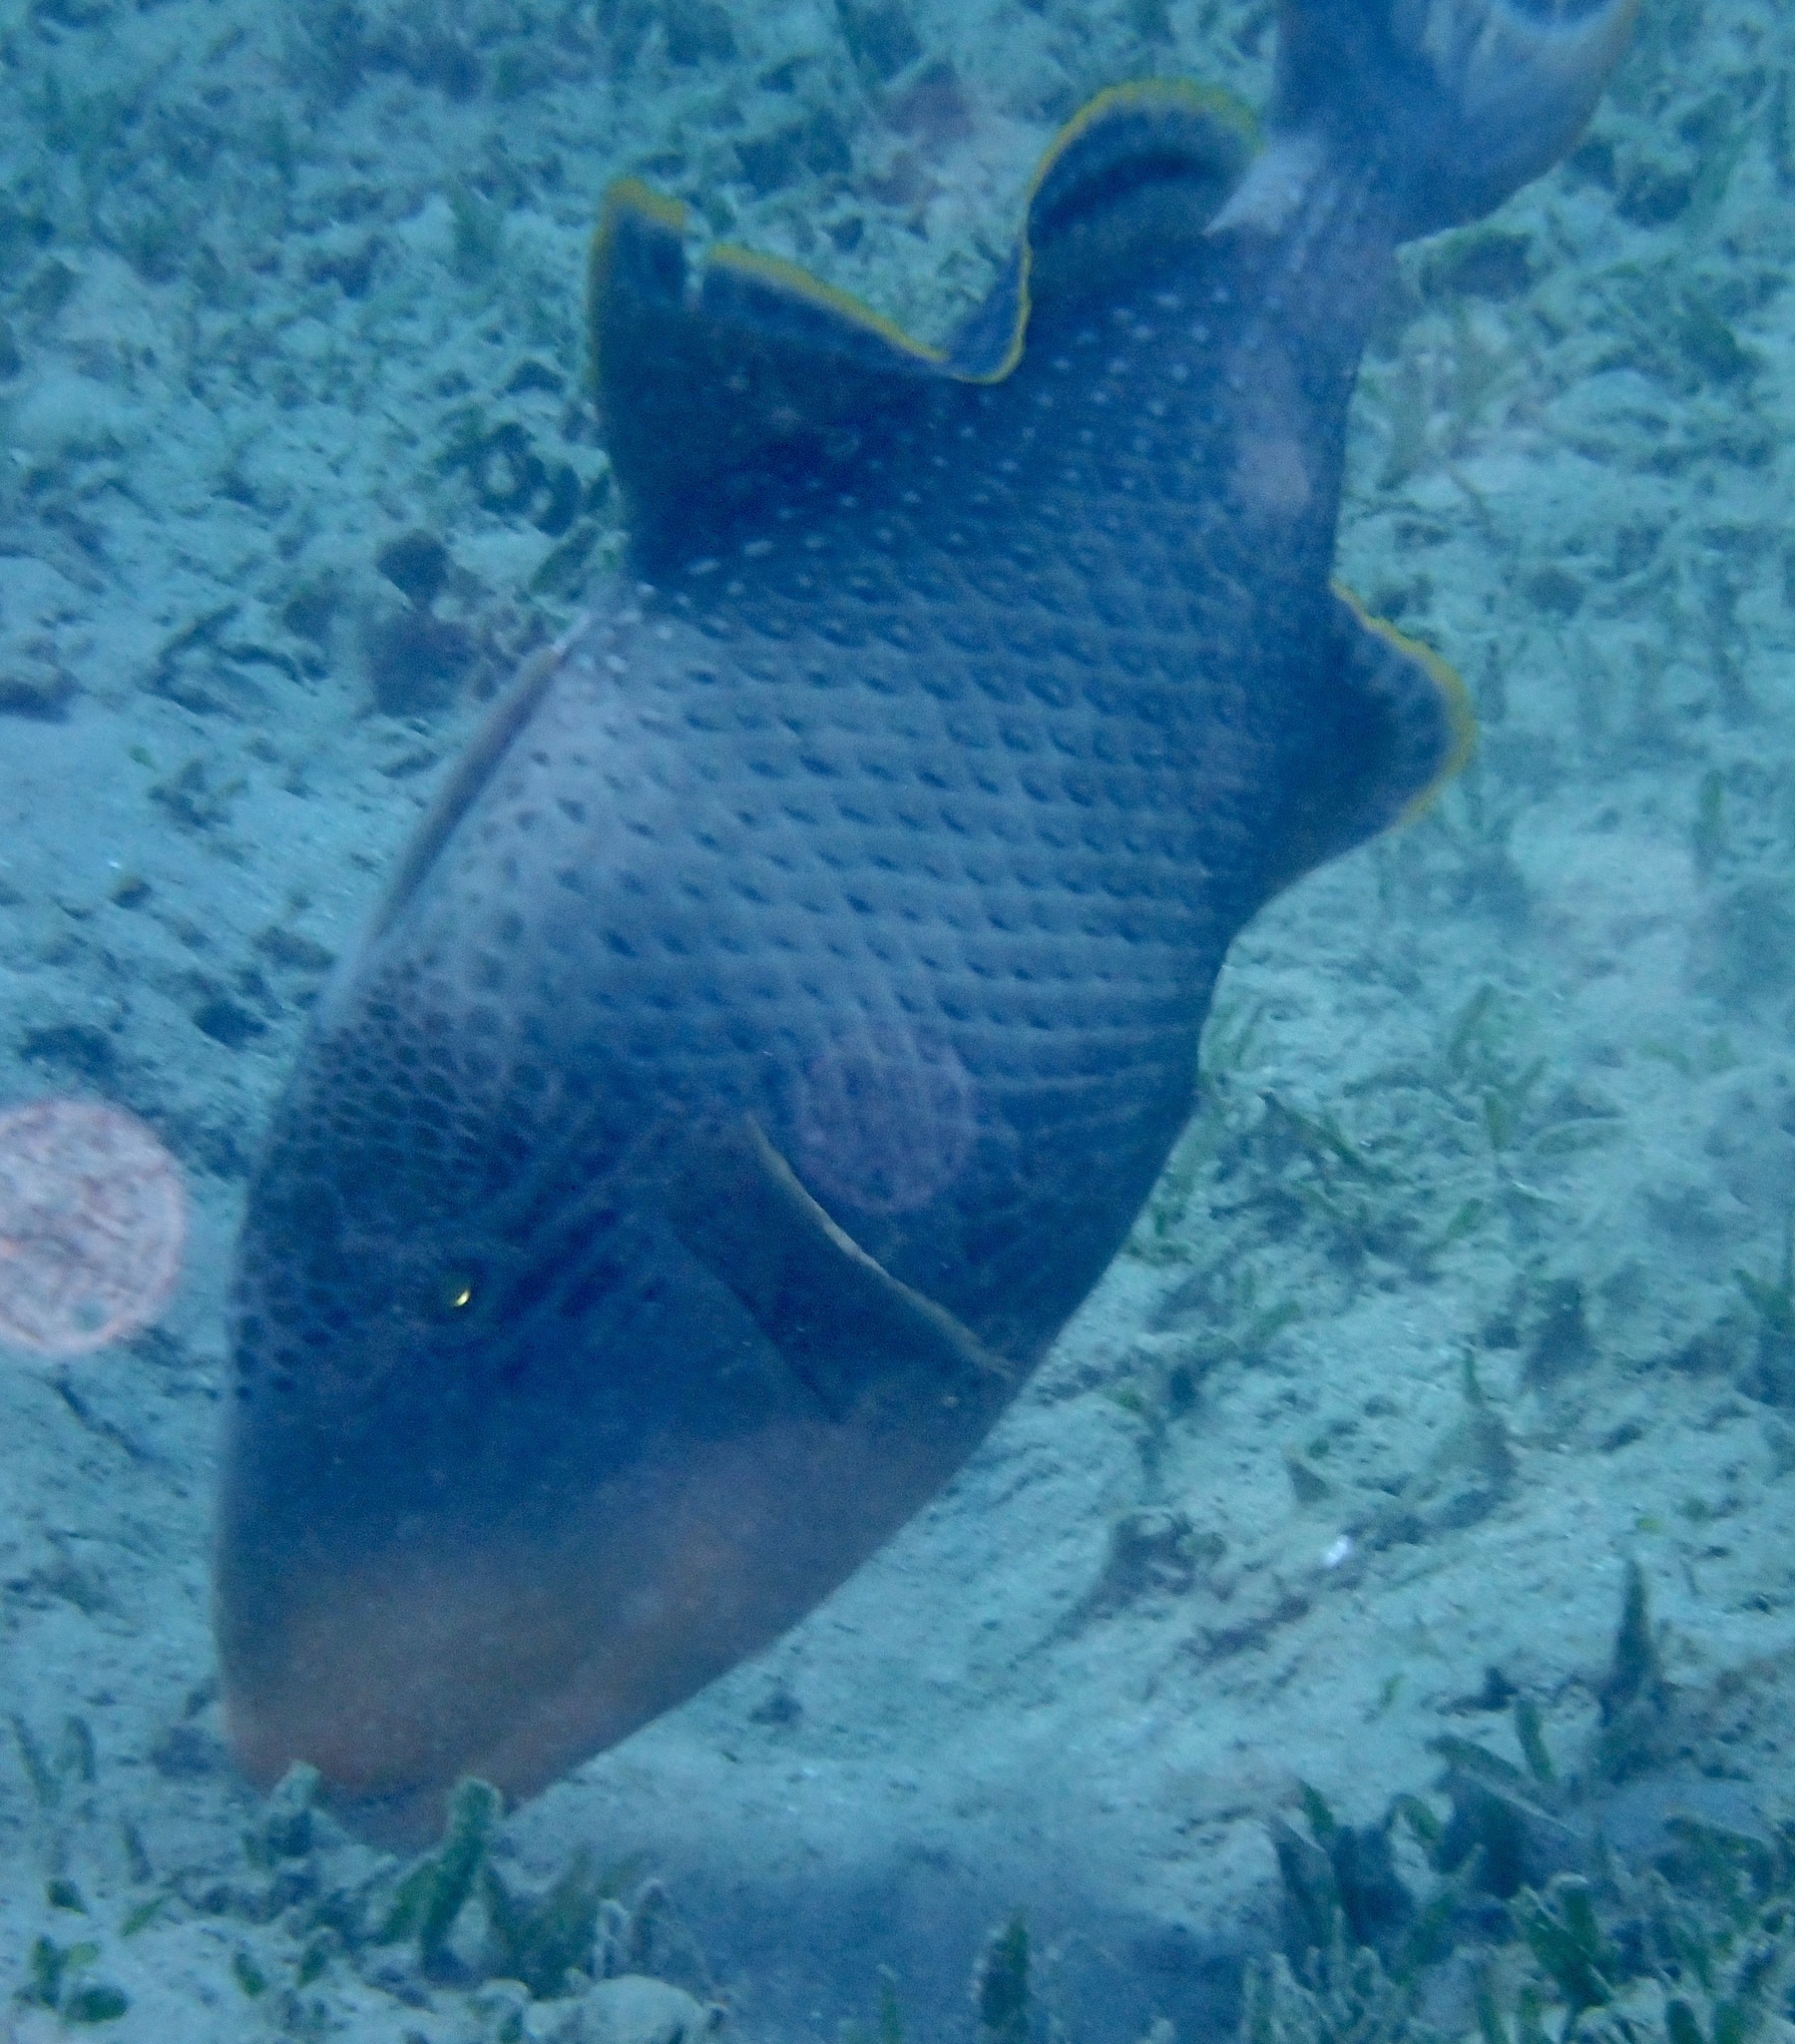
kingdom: Animalia
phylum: Chordata
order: Tetraodontiformes
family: Balistidae
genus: Pseudobalistes
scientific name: Pseudobalistes flavimarginatus
